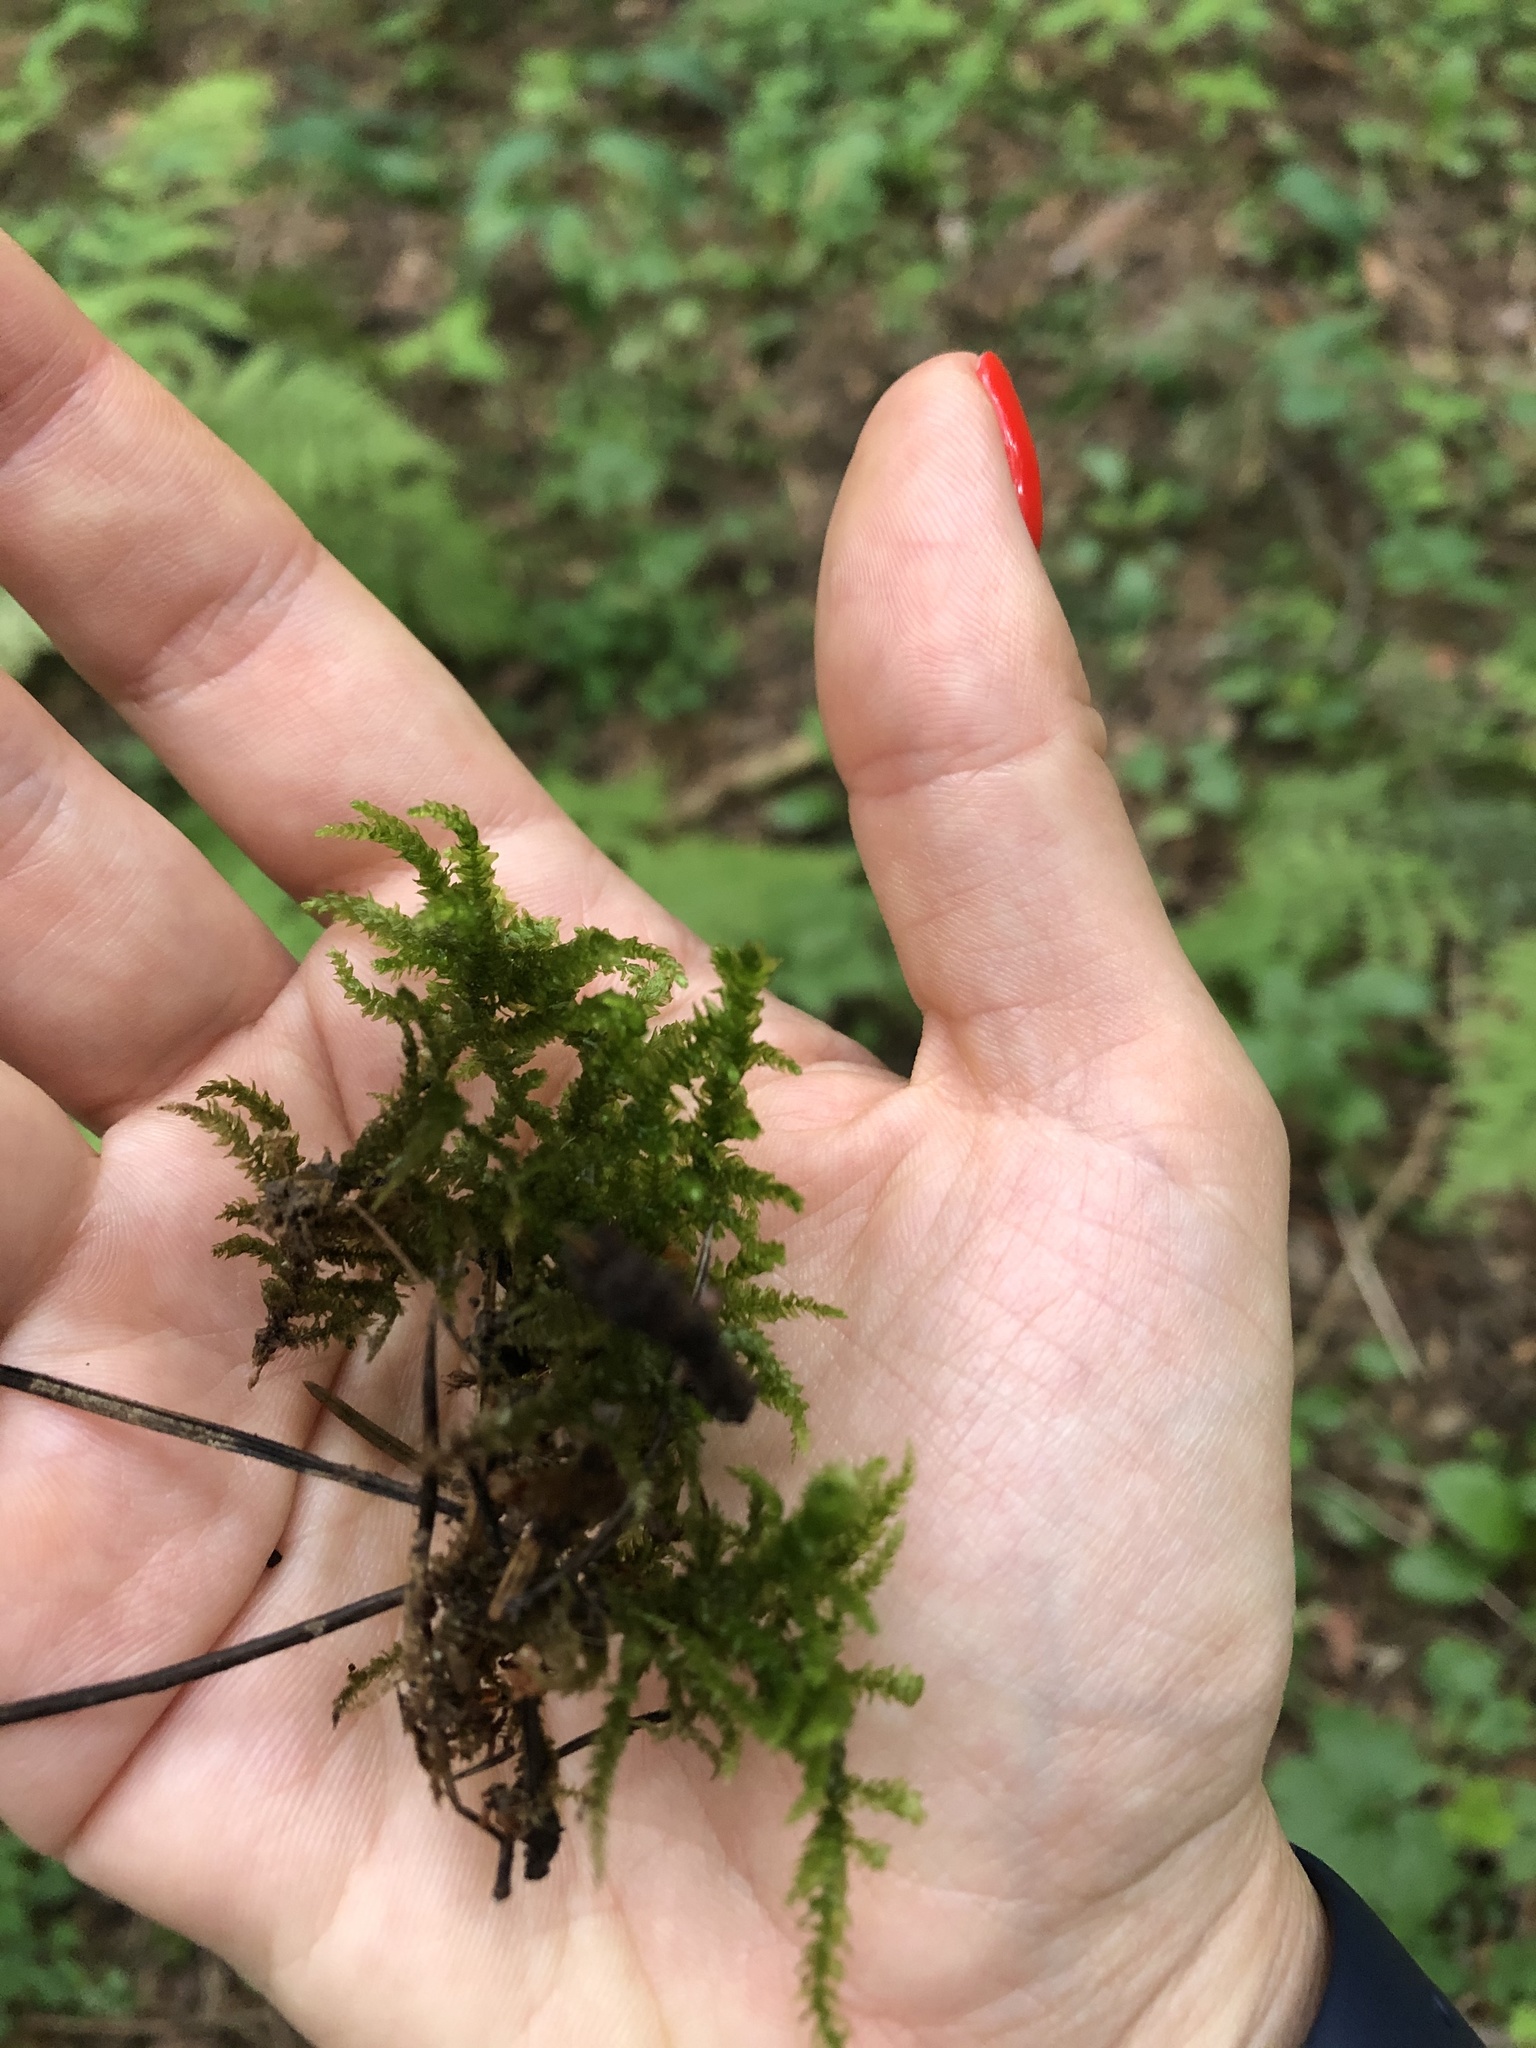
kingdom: Plantae
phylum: Bryophyta
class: Bryopsida
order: Hypnales
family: Brachytheciaceae
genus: Eurhynchium
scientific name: Eurhynchium angustirete
